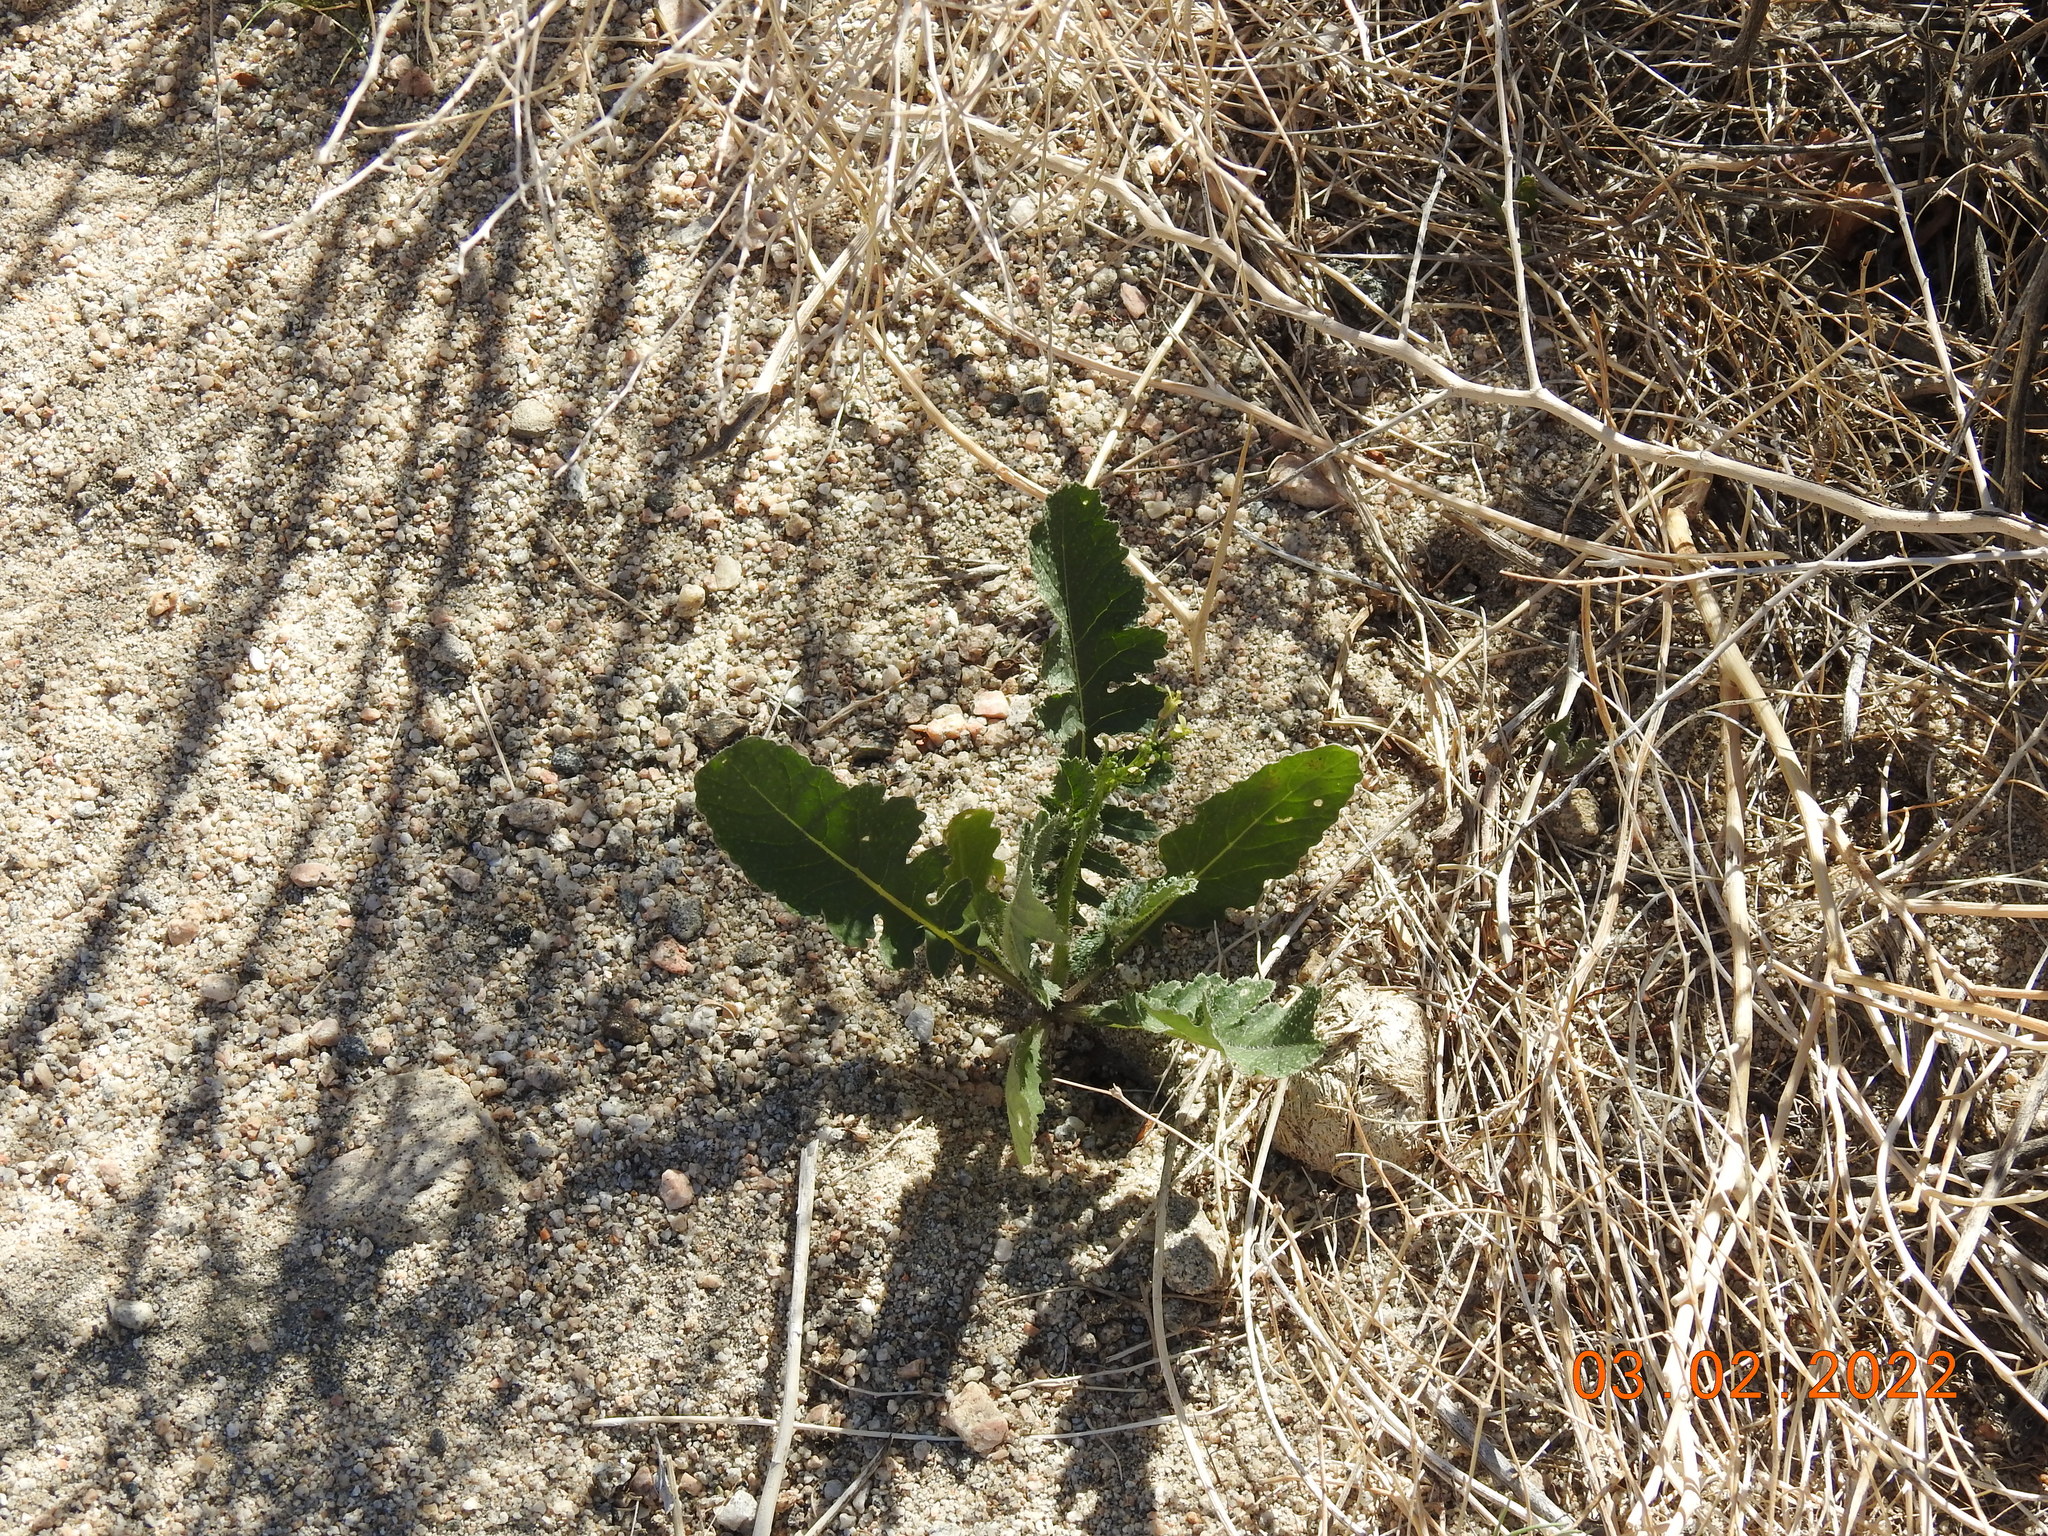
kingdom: Plantae
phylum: Tracheophyta
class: Magnoliopsida
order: Brassicales
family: Brassicaceae
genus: Brassica
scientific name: Brassica tournefortii
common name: Pale cabbage
